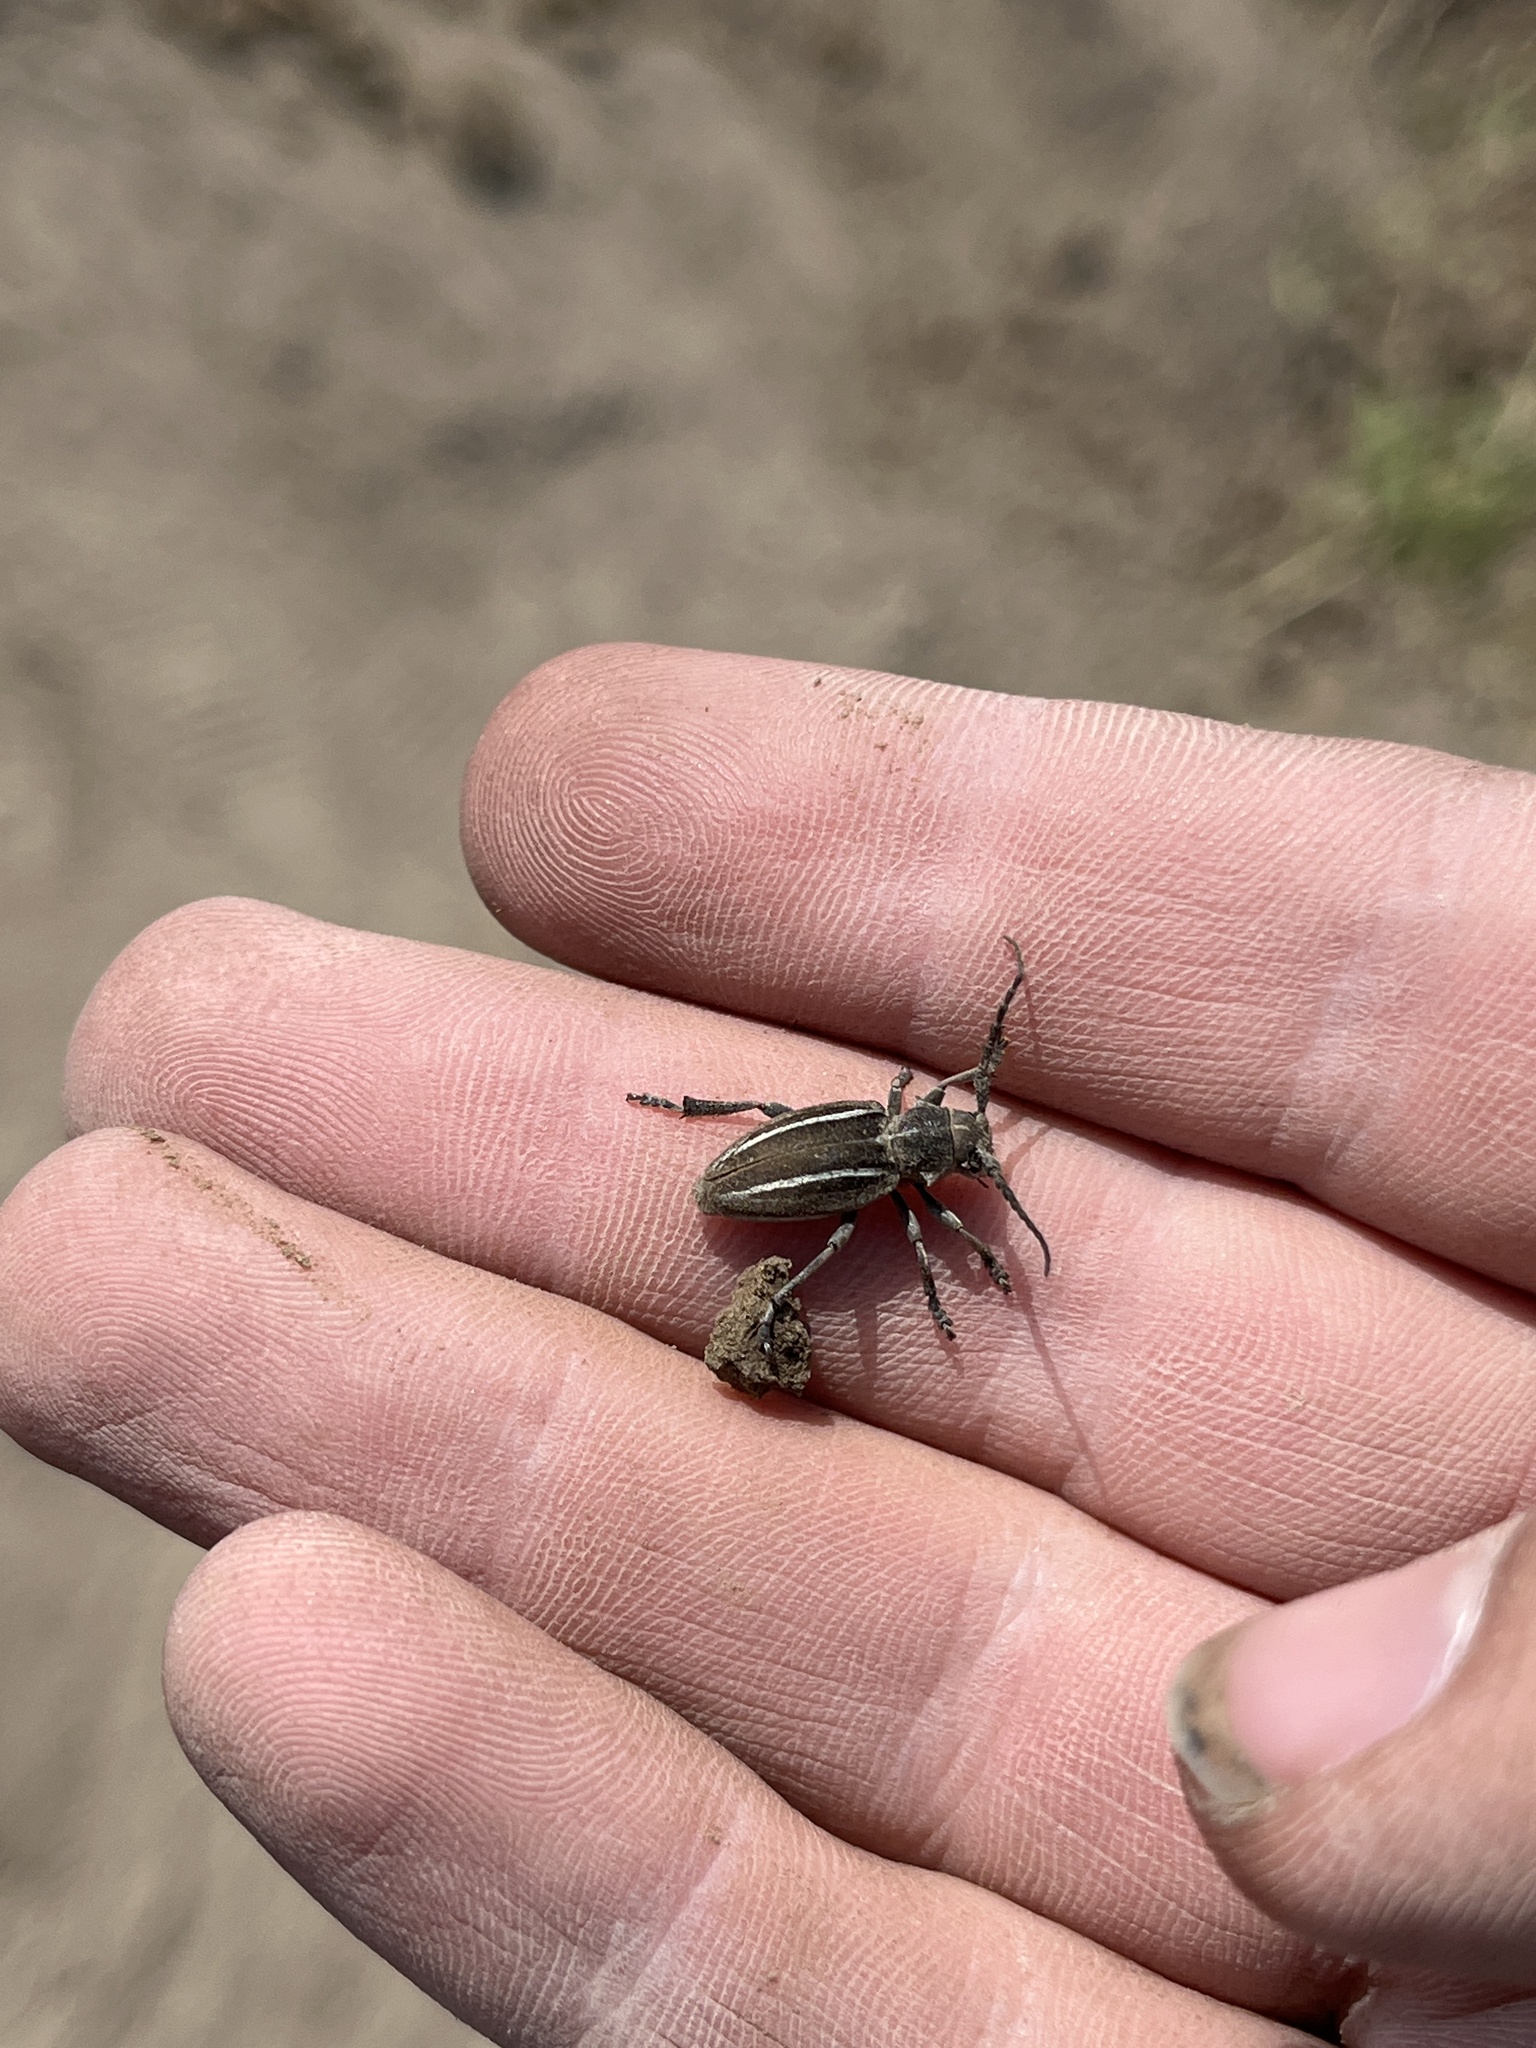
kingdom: Animalia
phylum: Arthropoda
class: Insecta
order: Coleoptera
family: Cerambycidae
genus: Neodorcadion
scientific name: Neodorcadion bilineatum
